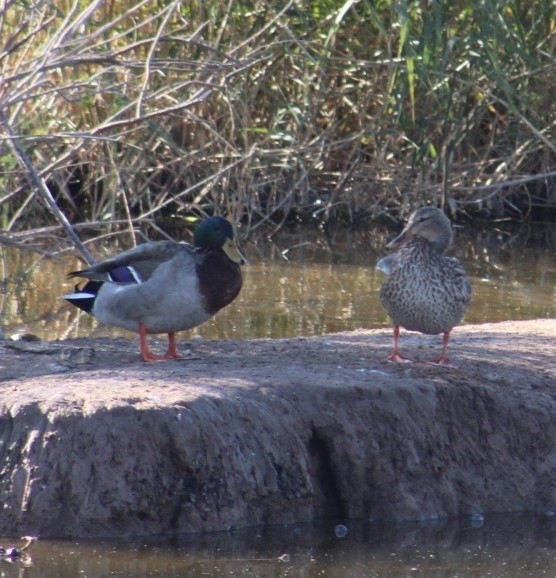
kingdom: Animalia
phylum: Chordata
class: Aves
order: Anseriformes
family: Anatidae
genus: Anas
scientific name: Anas platyrhynchos
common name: Mallard
